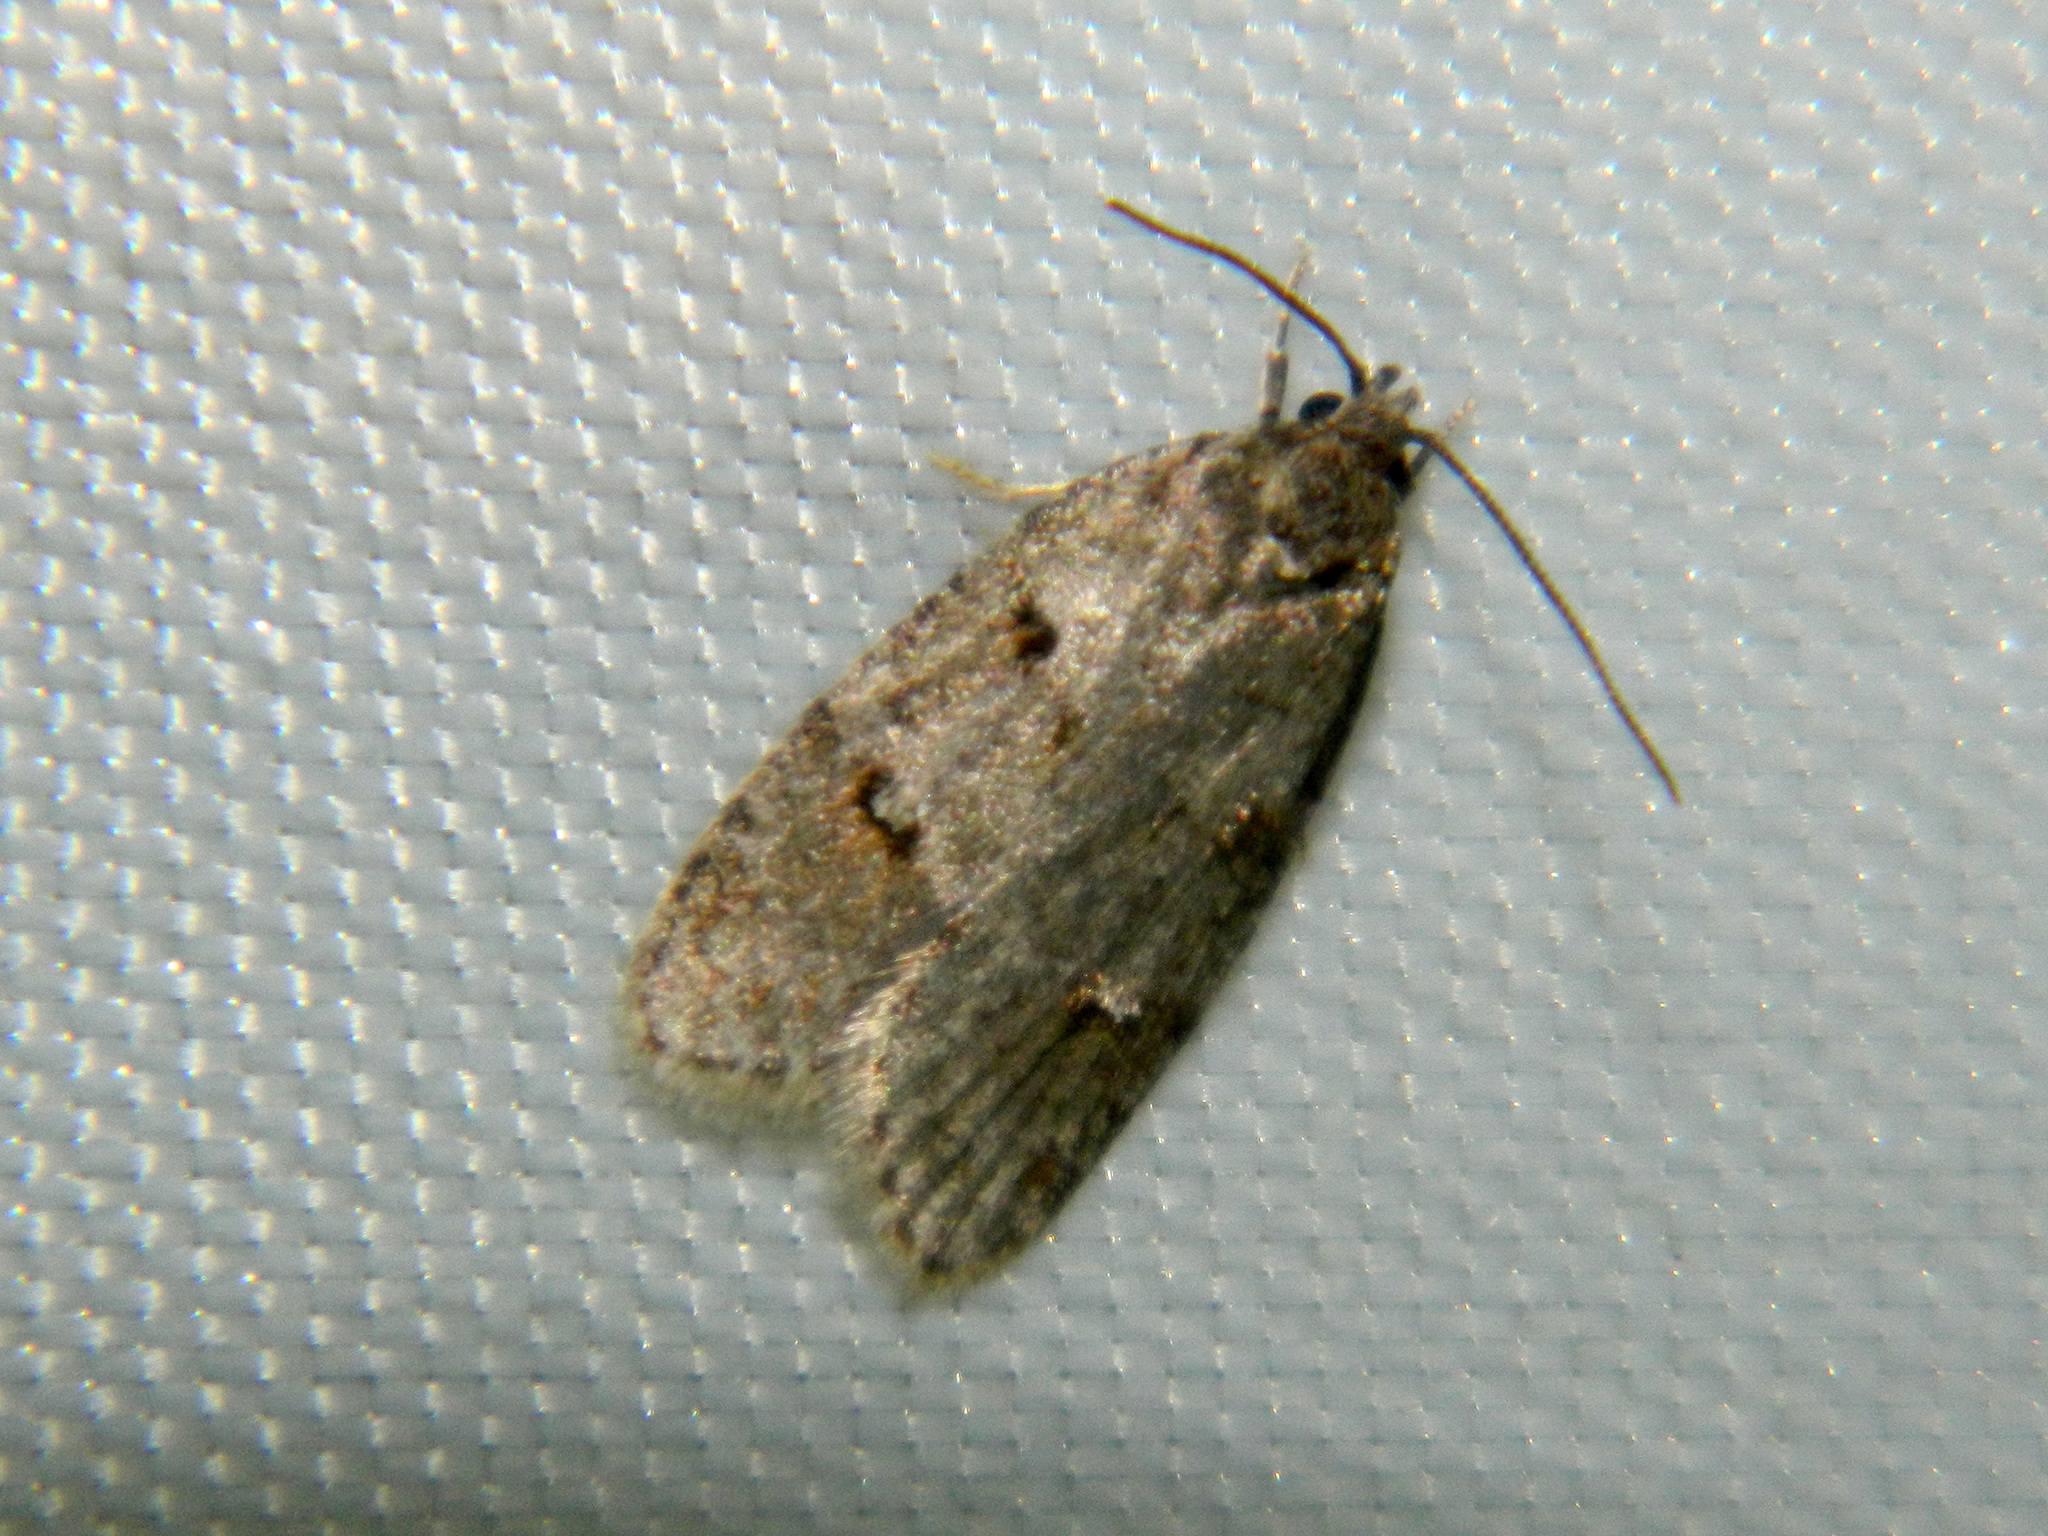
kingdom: Animalia
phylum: Arthropoda
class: Insecta
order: Lepidoptera
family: Depressariidae
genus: Bibarrambla
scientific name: Bibarrambla allenella
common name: Bog bibarrambla moth
